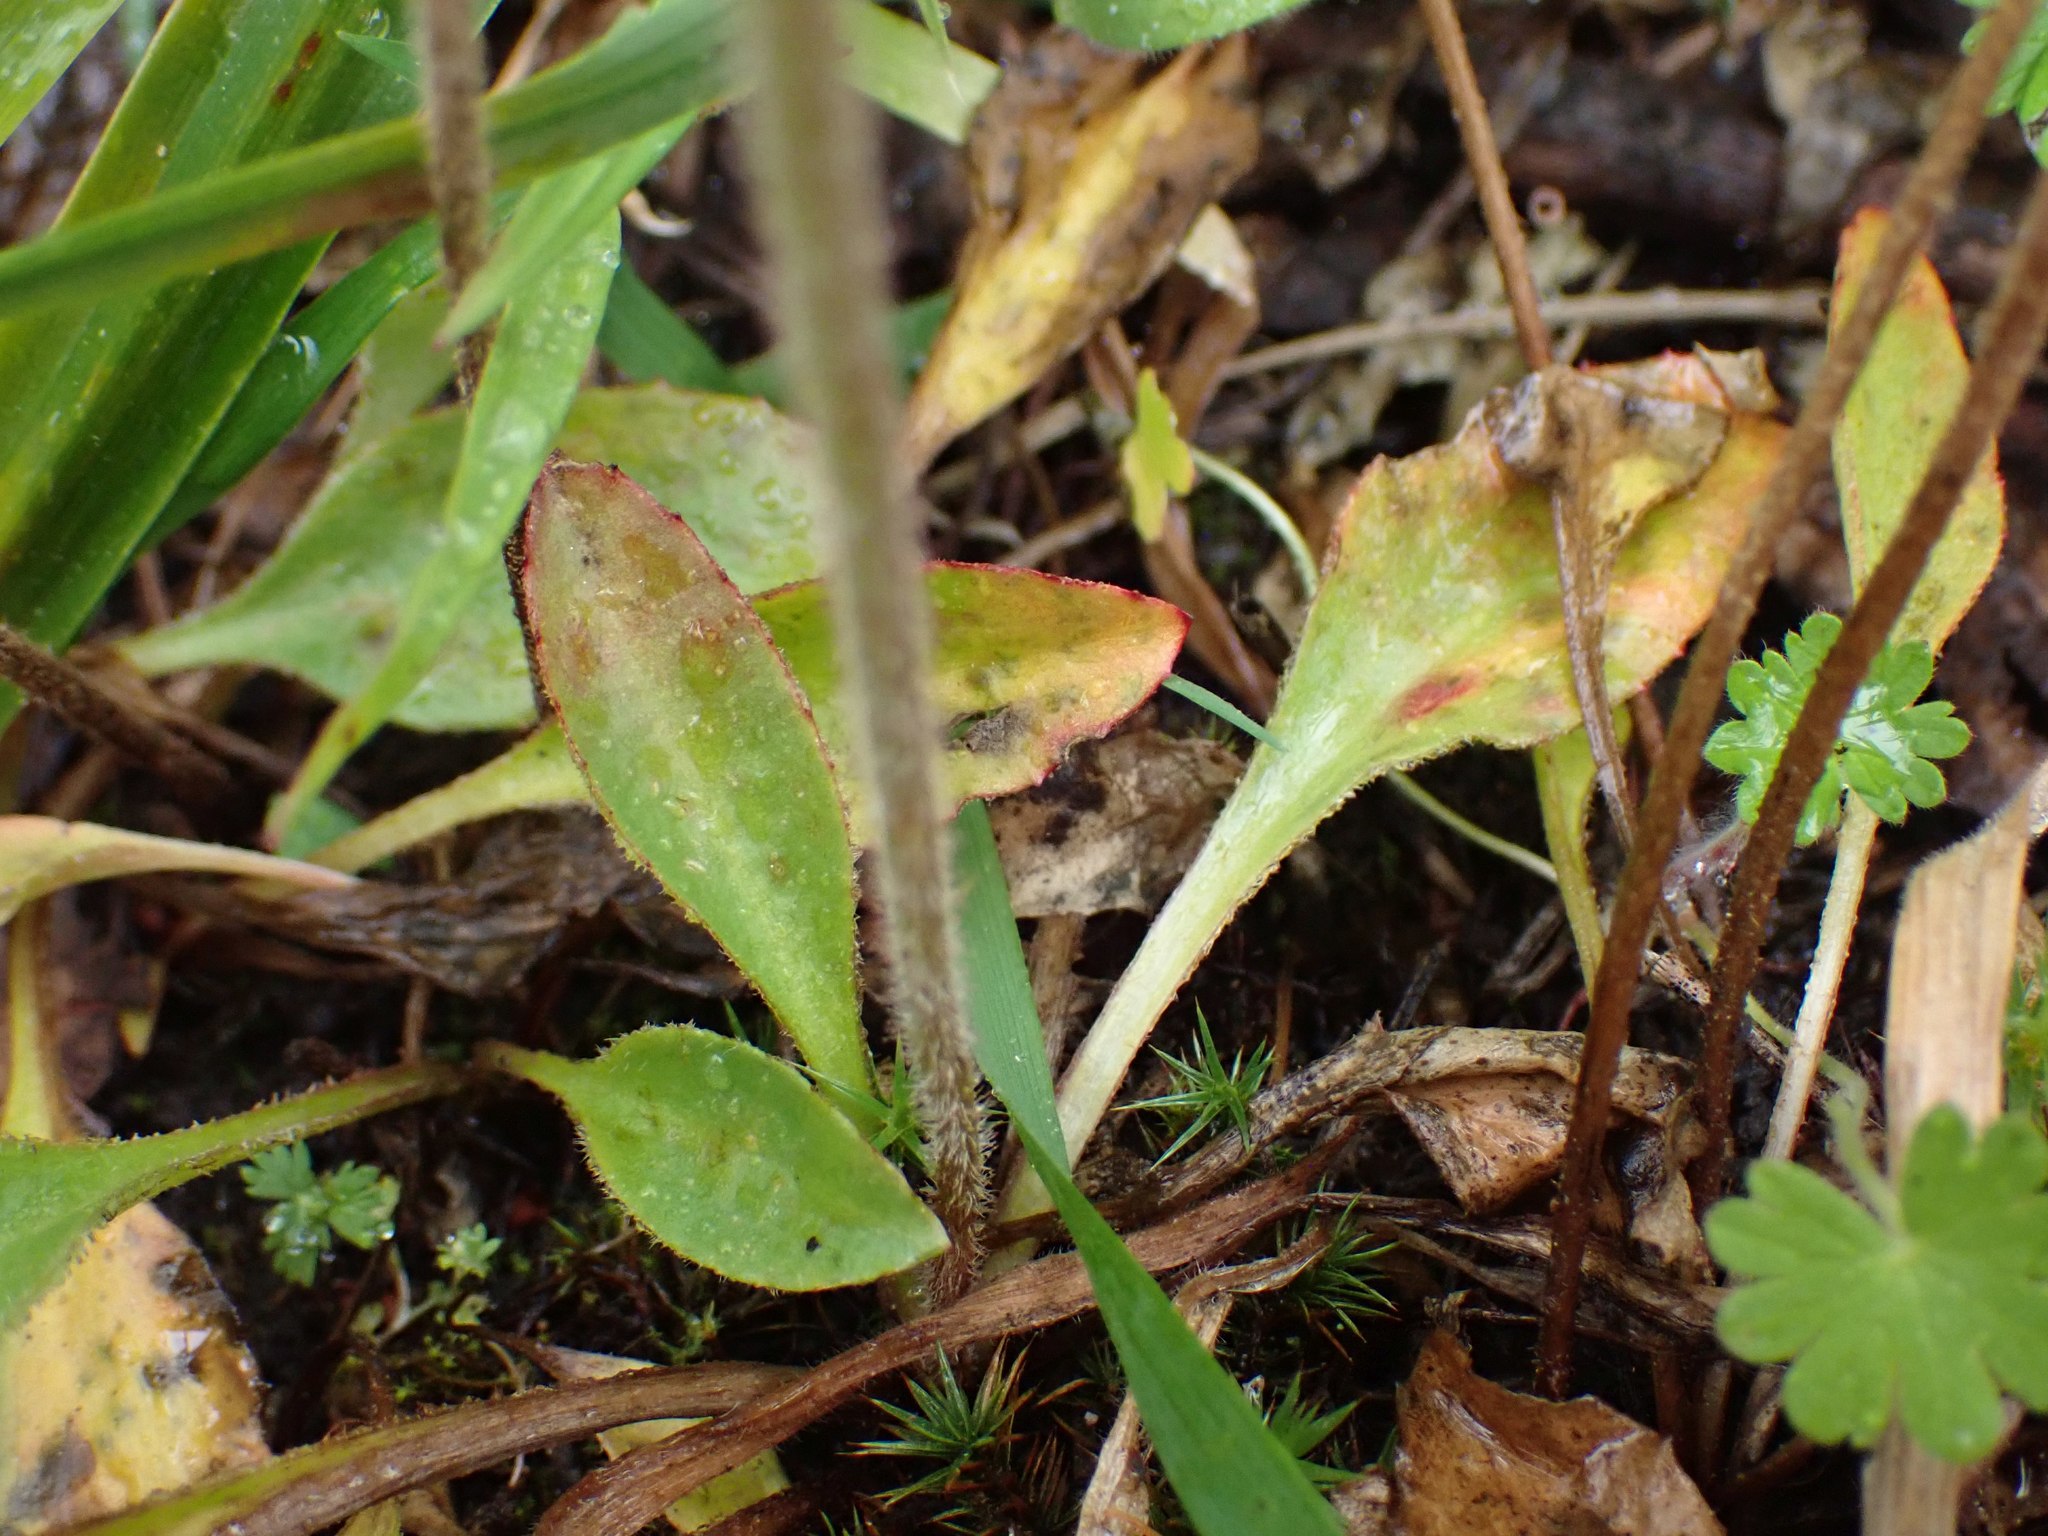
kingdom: Plantae
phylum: Tracheophyta
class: Magnoliopsida
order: Saxifragales
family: Saxifragaceae
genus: Micranthes
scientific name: Micranthes integrifolia
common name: Wholeleaf saxifrage
